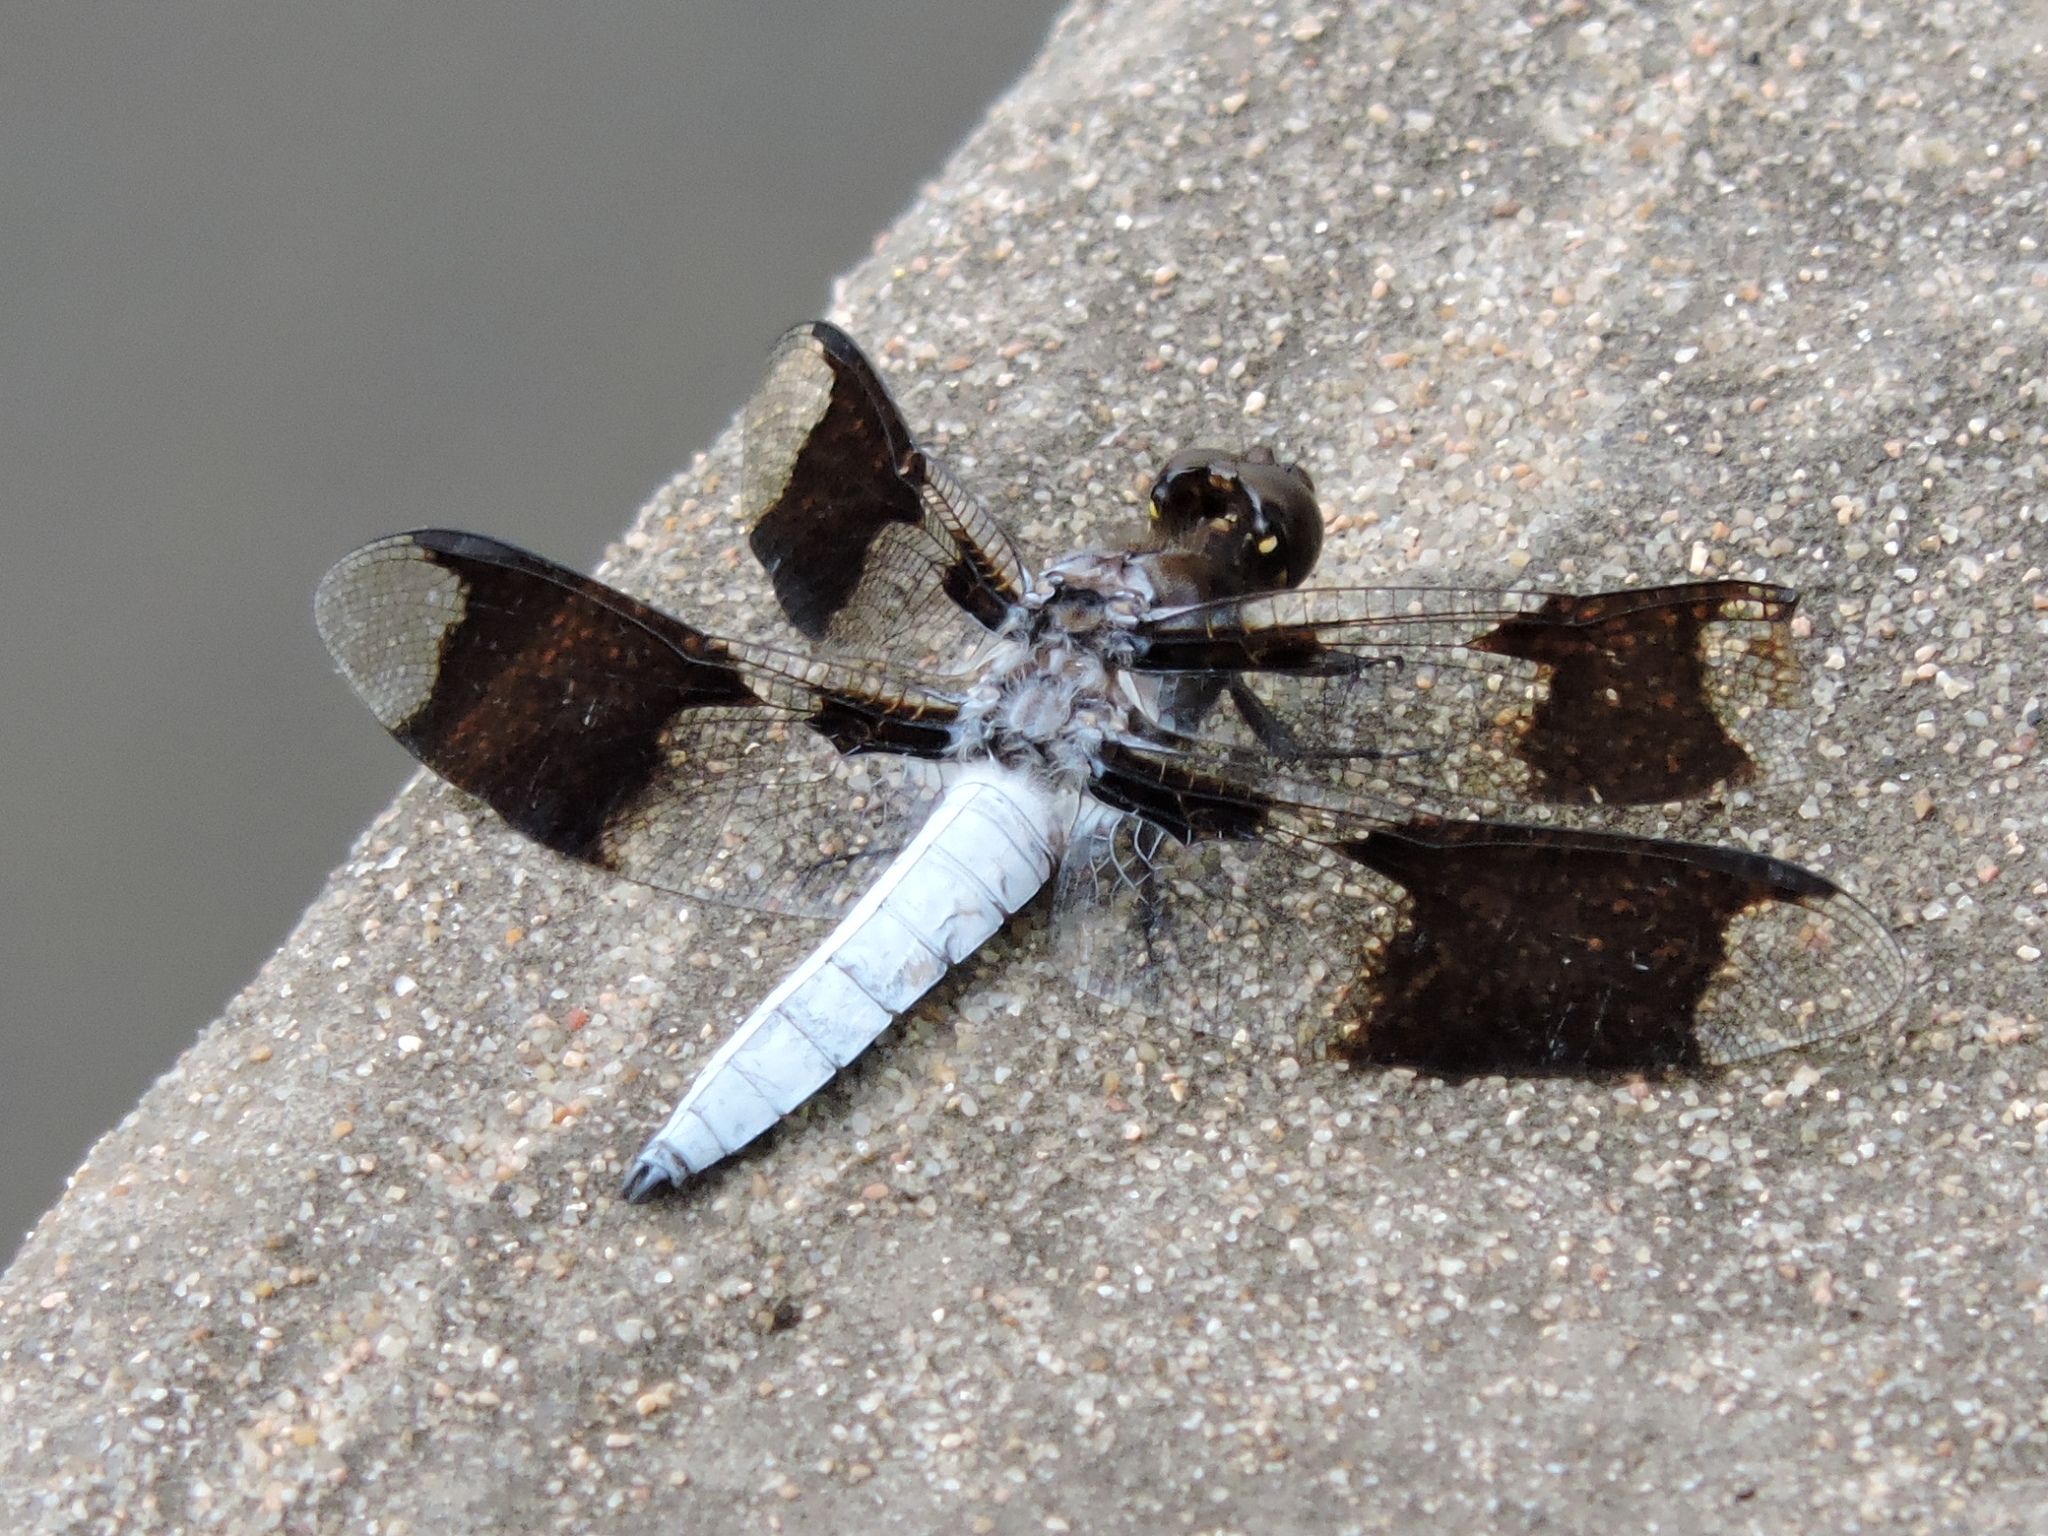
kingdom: Animalia
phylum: Arthropoda
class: Insecta
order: Odonata
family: Libellulidae
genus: Plathemis
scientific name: Plathemis lydia
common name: Common whitetail
